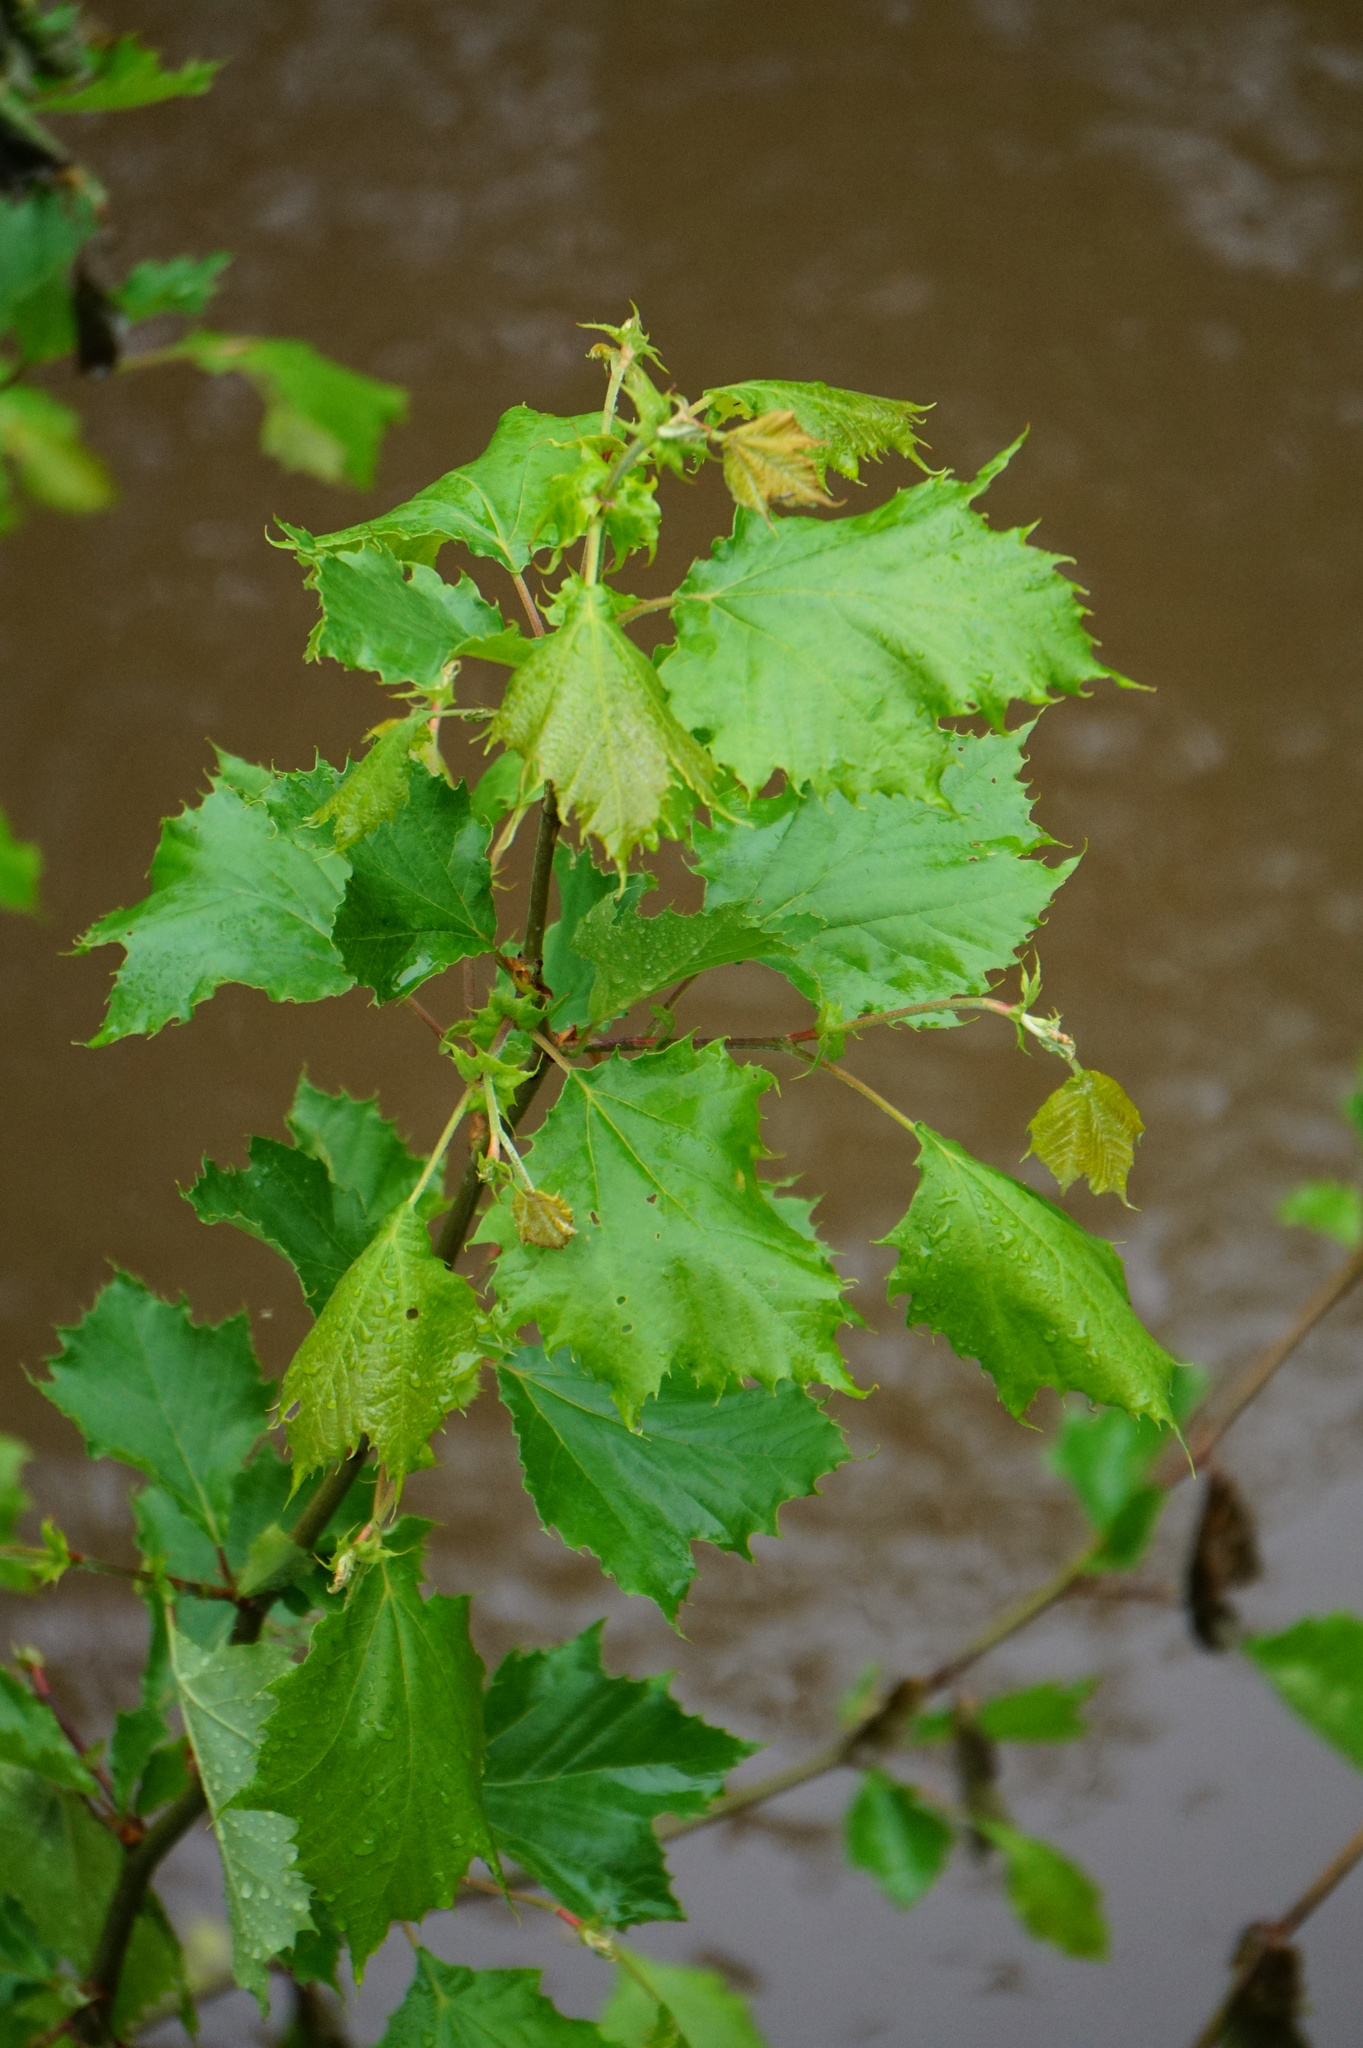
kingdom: Plantae
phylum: Tracheophyta
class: Magnoliopsida
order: Proteales
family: Platanaceae
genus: Platanus
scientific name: Platanus occidentalis
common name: American sycamore
